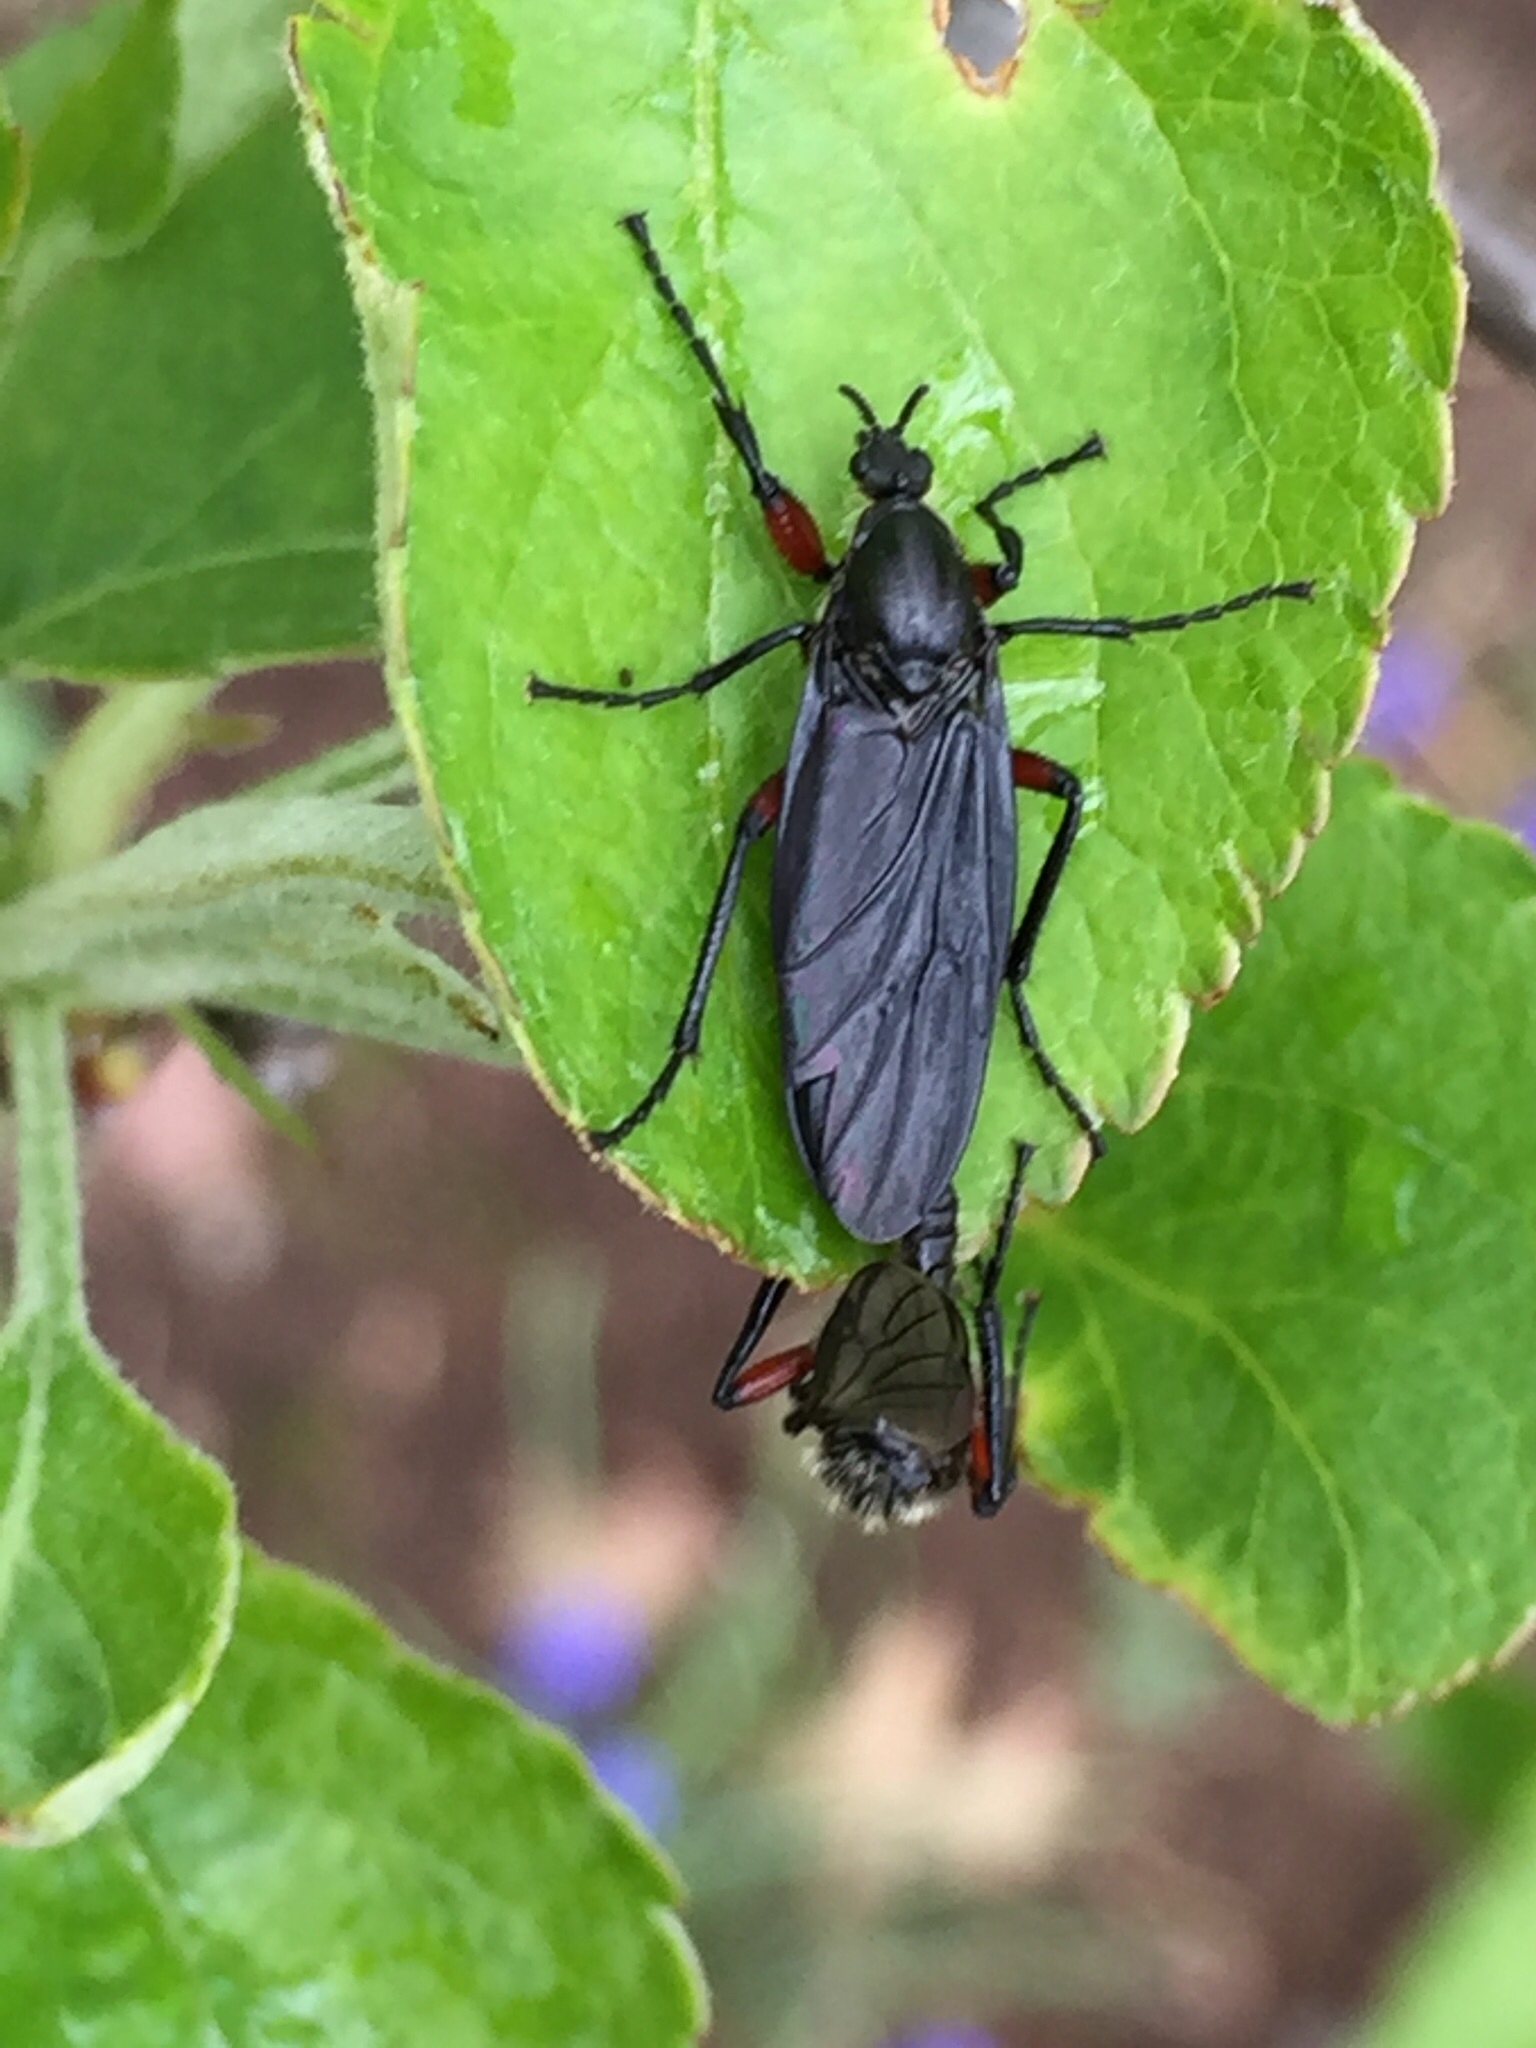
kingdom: Animalia
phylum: Arthropoda
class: Insecta
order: Diptera
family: Bibionidae
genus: Bibio
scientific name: Bibio femoratus
